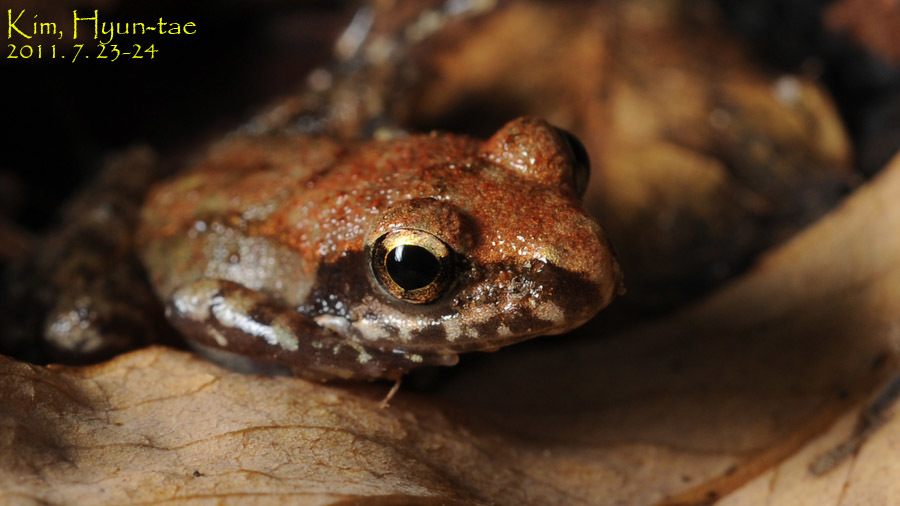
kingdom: Animalia
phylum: Chordata
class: Amphibia
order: Anura
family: Ranidae
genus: Rana
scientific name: Rana uenoi
